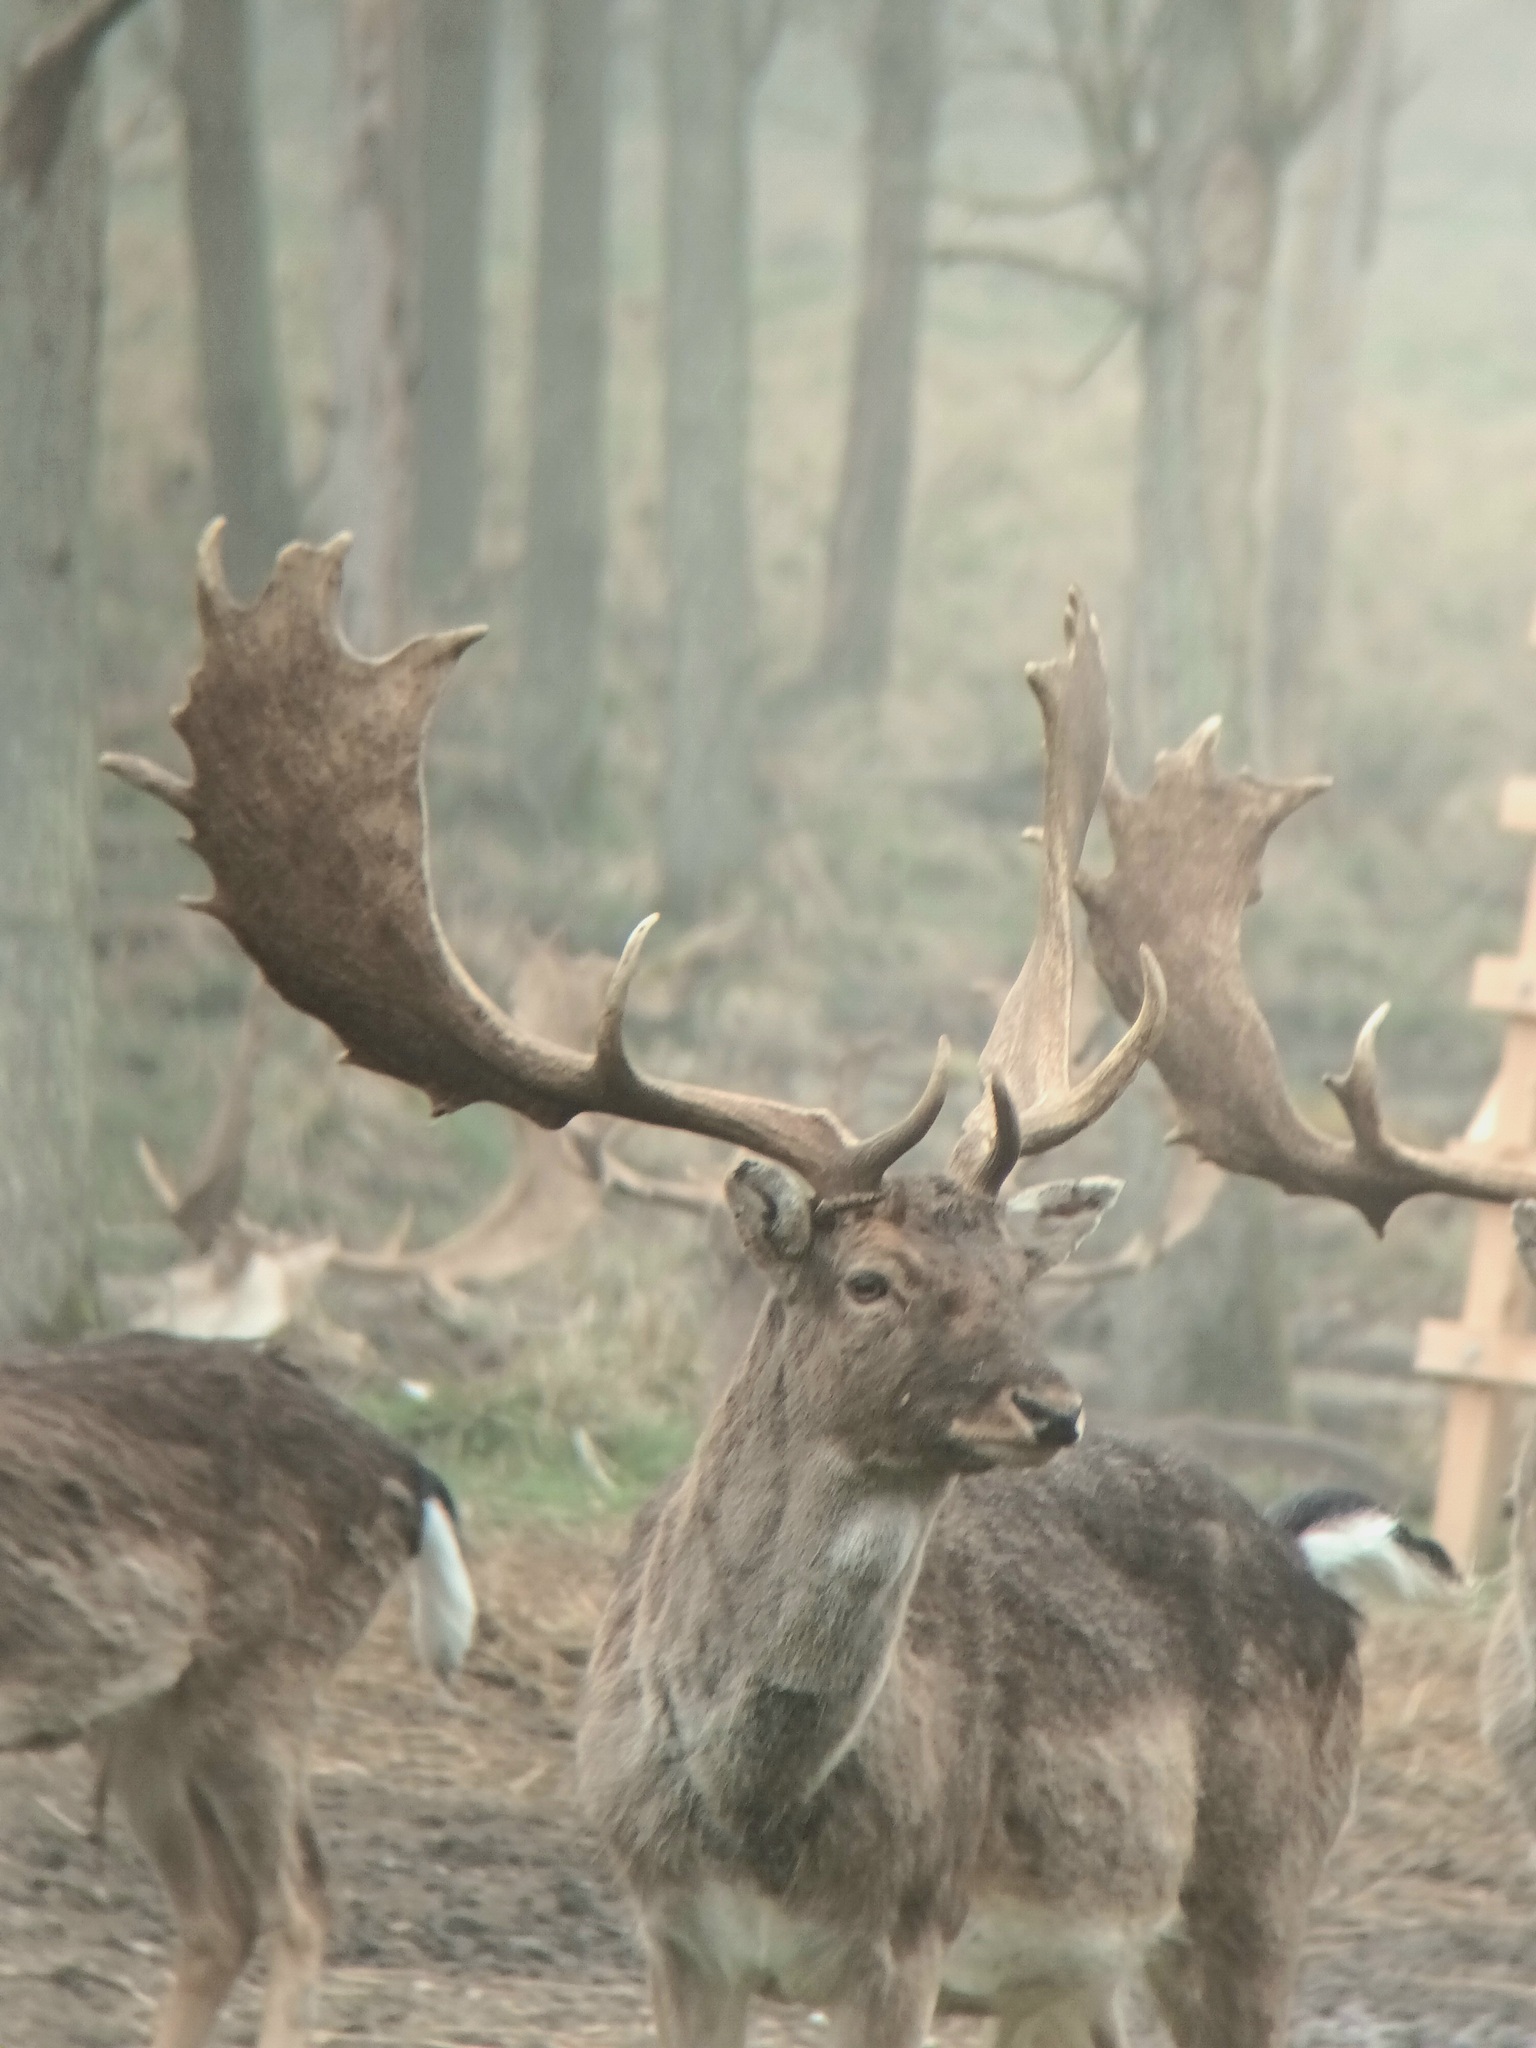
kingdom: Animalia
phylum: Chordata
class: Mammalia
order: Artiodactyla
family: Cervidae
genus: Dama
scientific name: Dama dama
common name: Fallow deer
